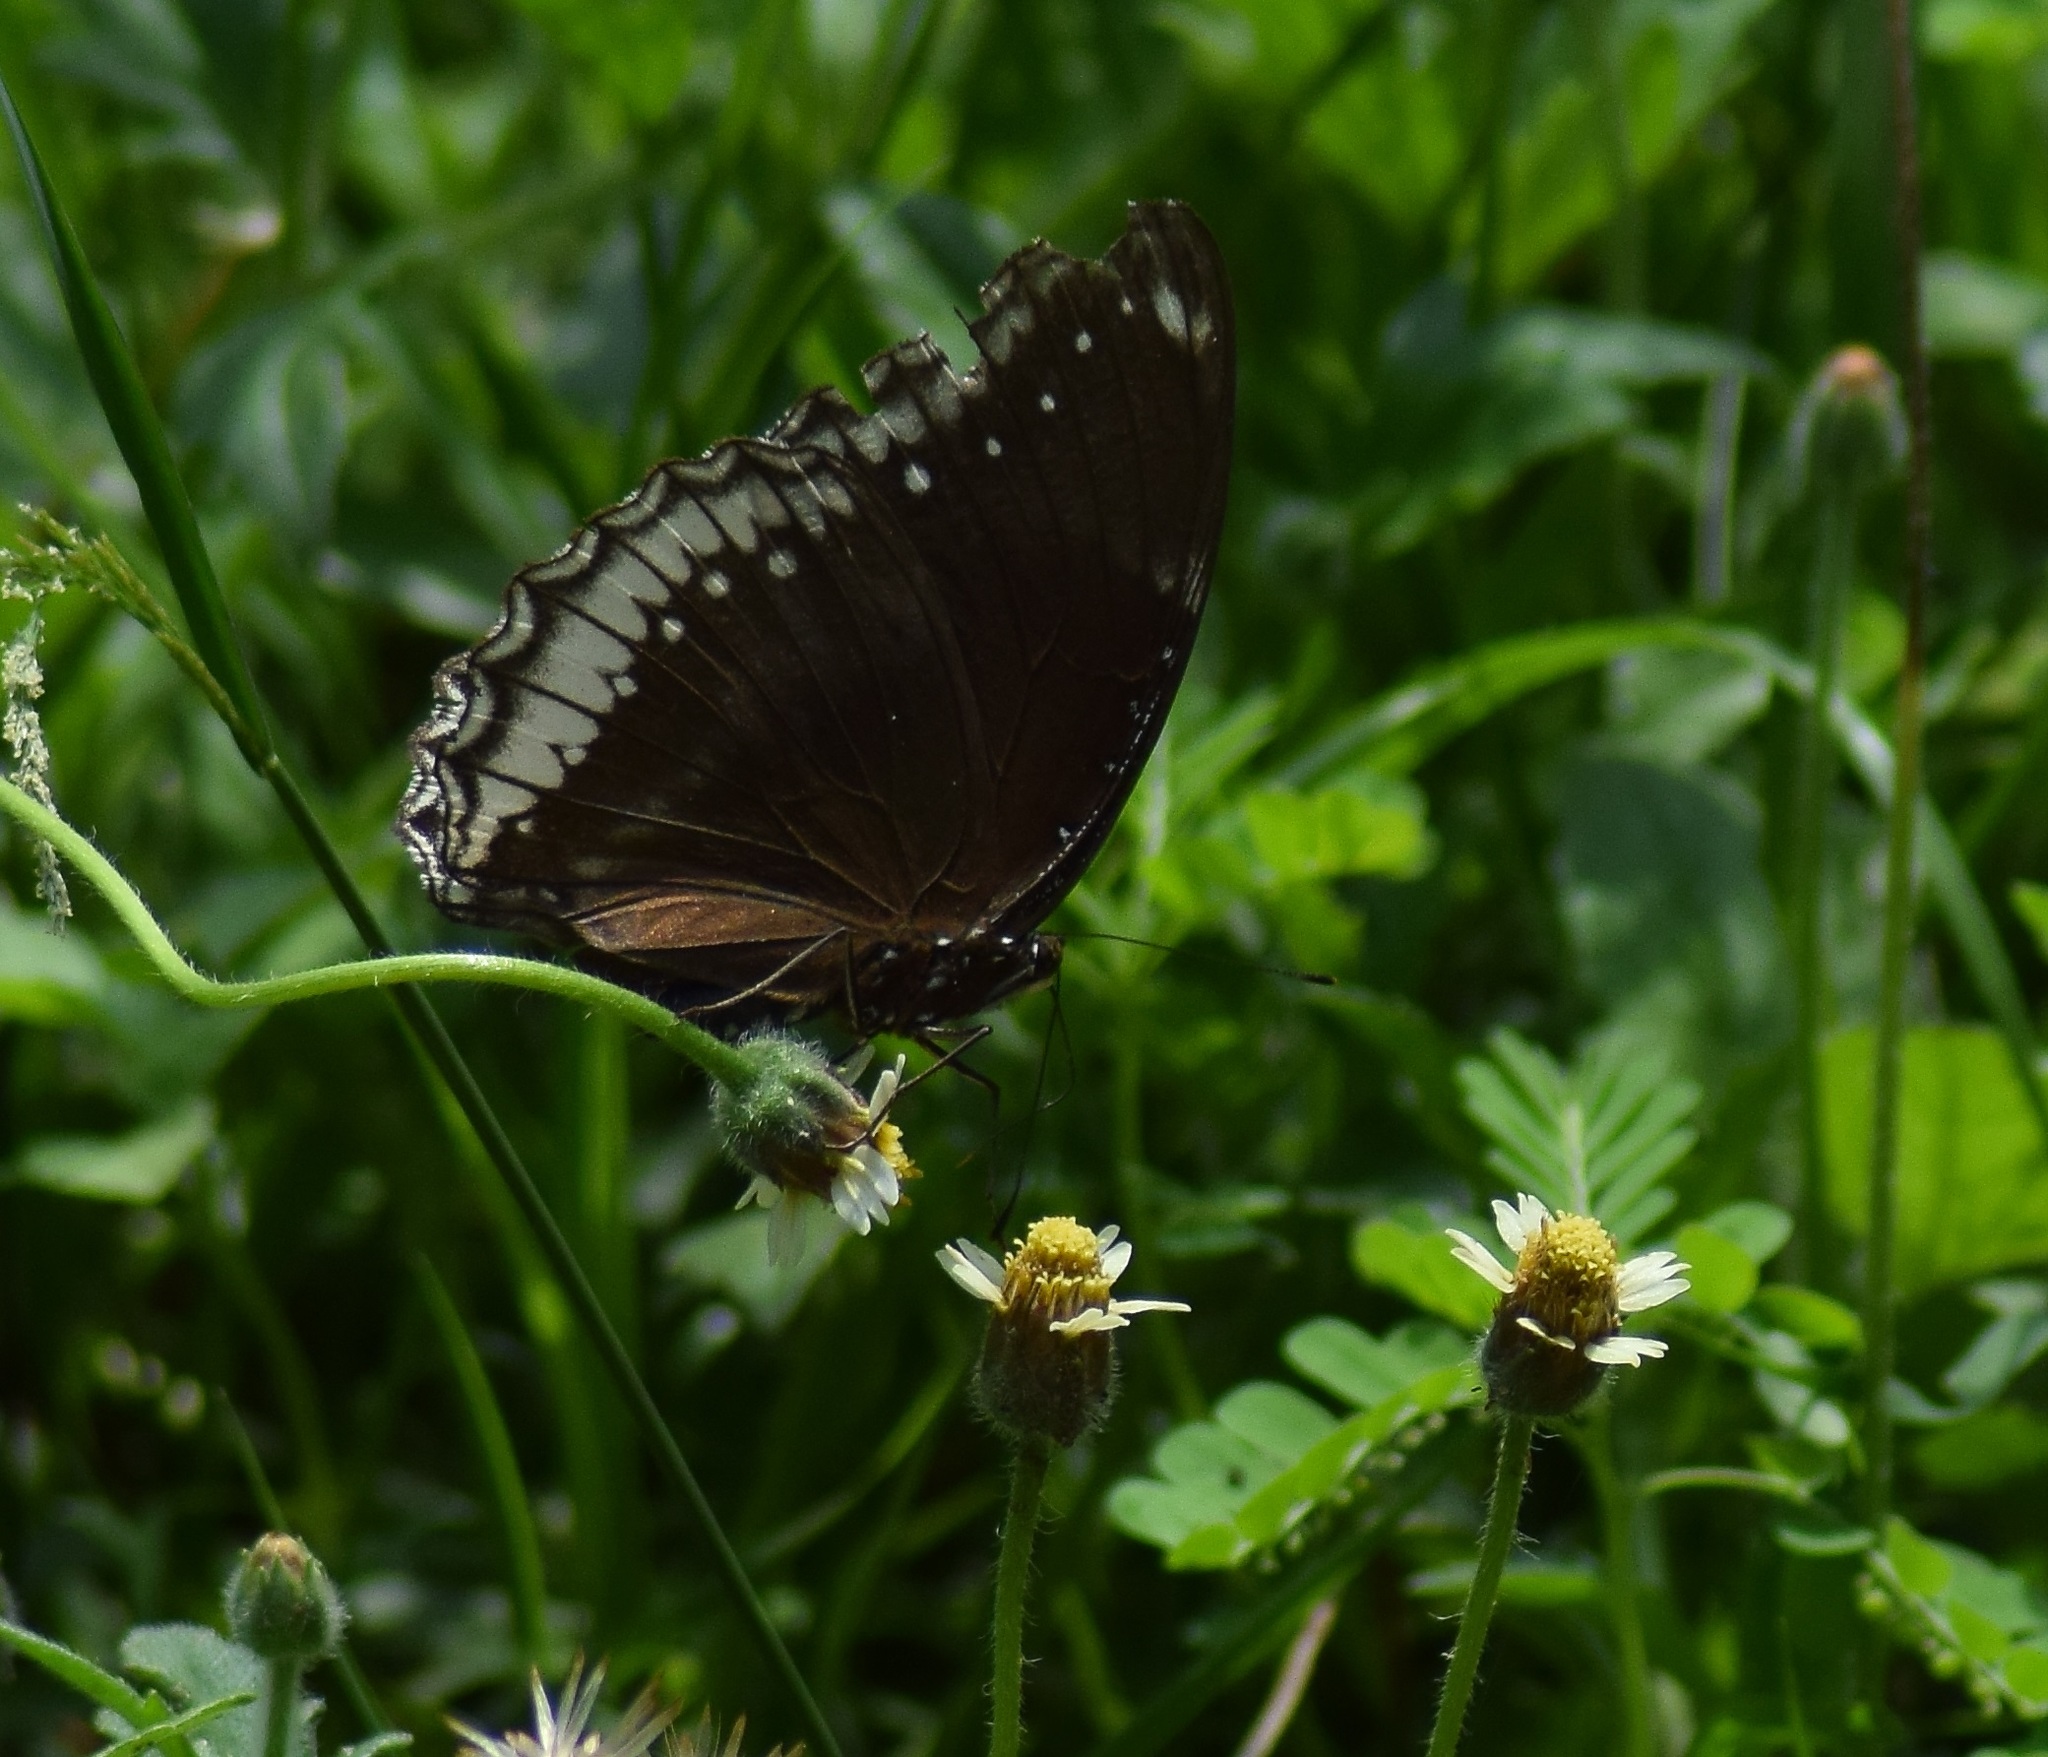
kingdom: Animalia
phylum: Arthropoda
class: Insecta
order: Lepidoptera
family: Nymphalidae
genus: Hypolimnas
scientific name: Hypolimnas bolina
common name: Great eggfly
